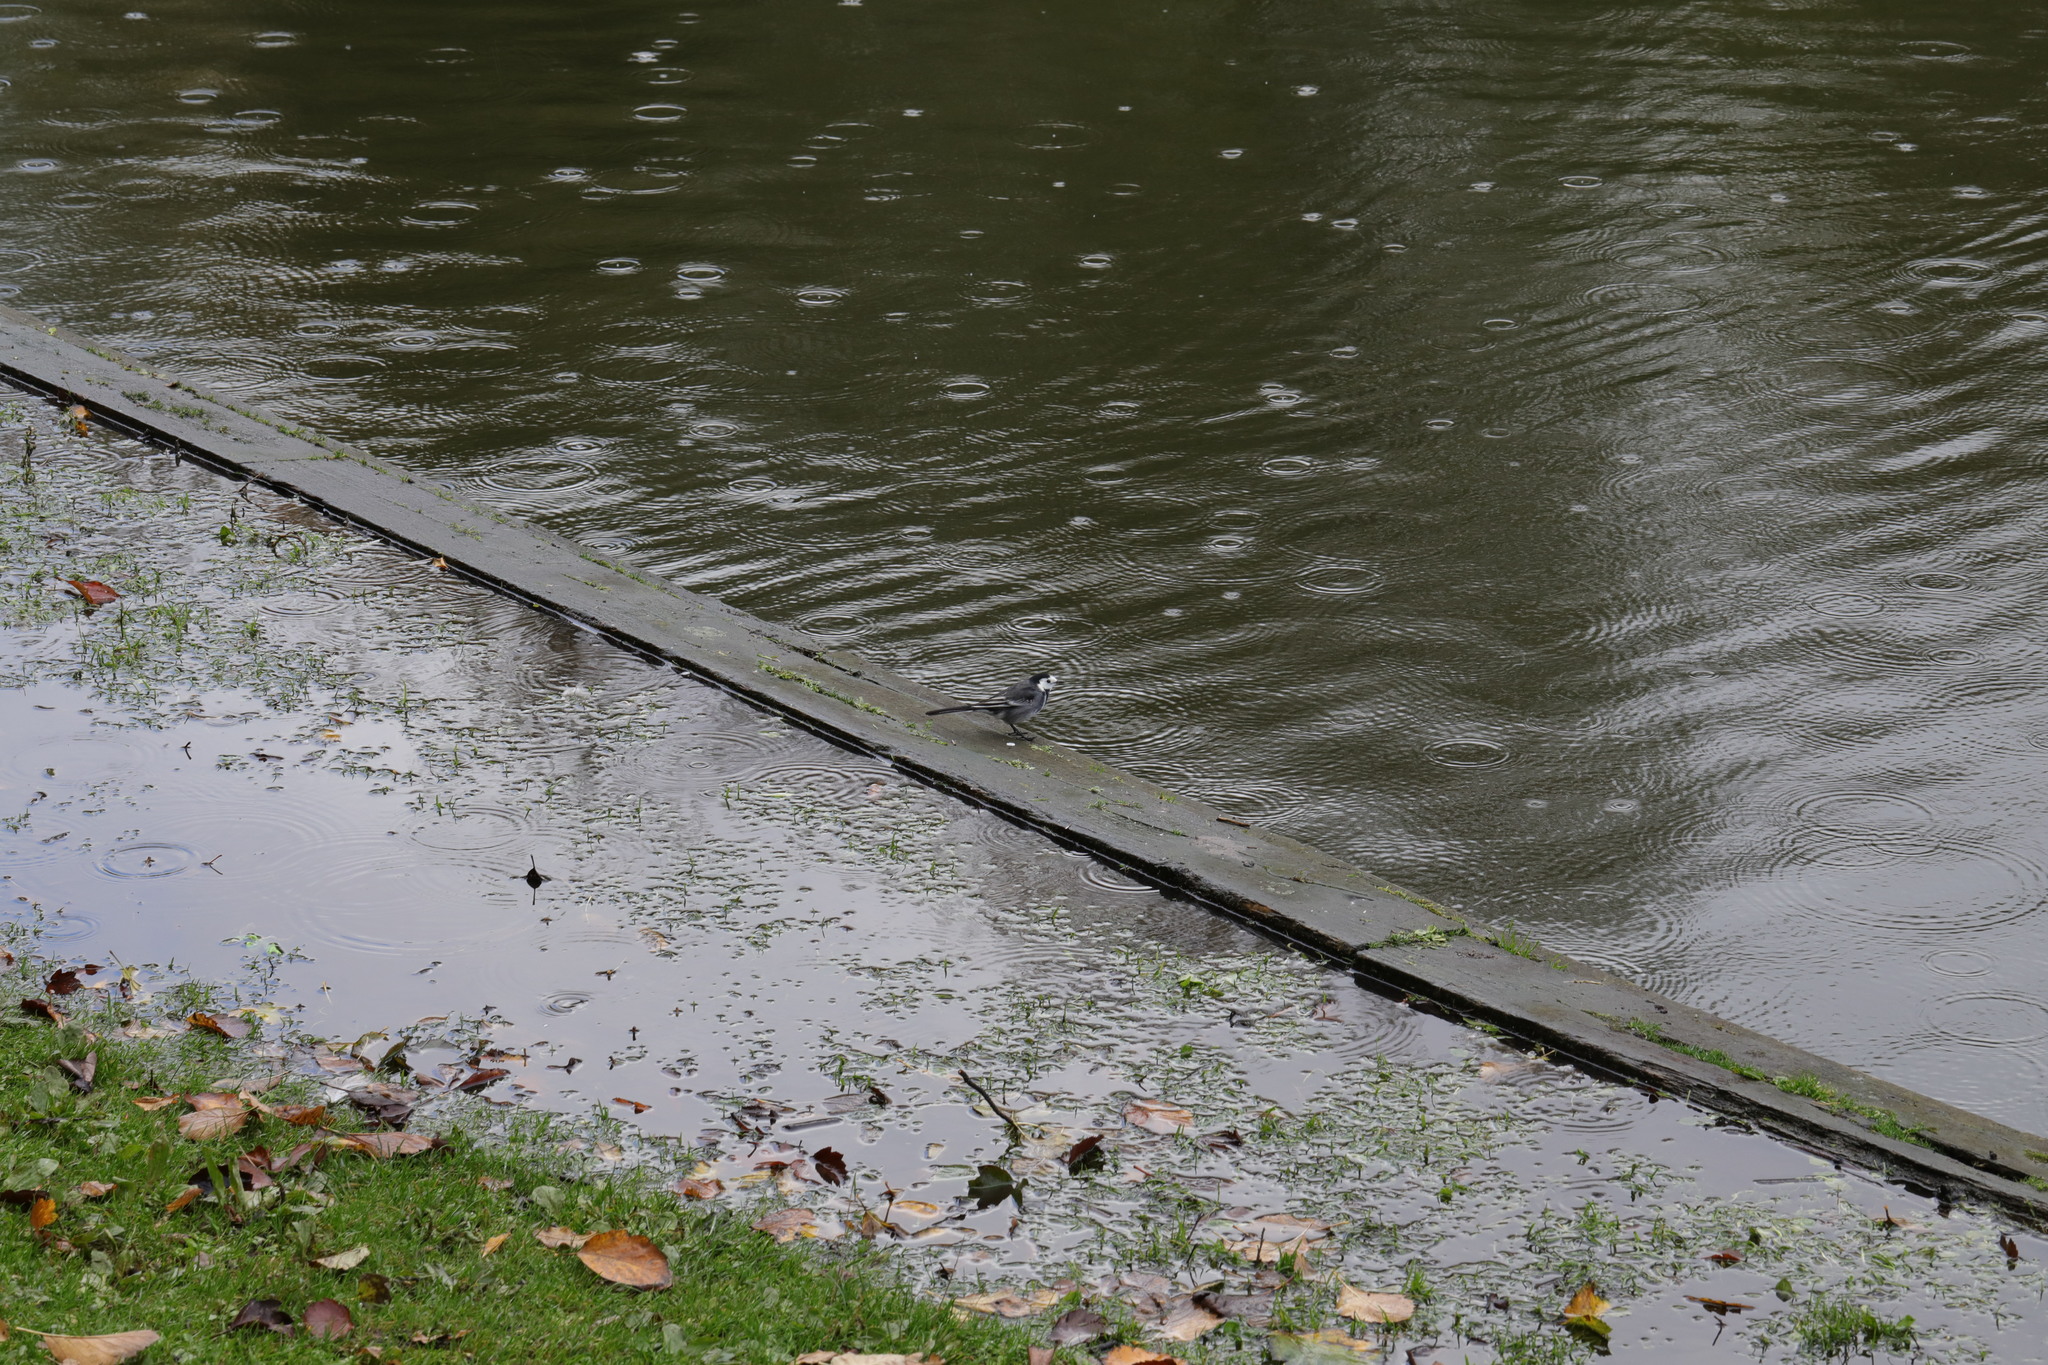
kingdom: Animalia
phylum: Chordata
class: Aves
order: Passeriformes
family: Motacillidae
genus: Motacilla
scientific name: Motacilla alba
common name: White wagtail
